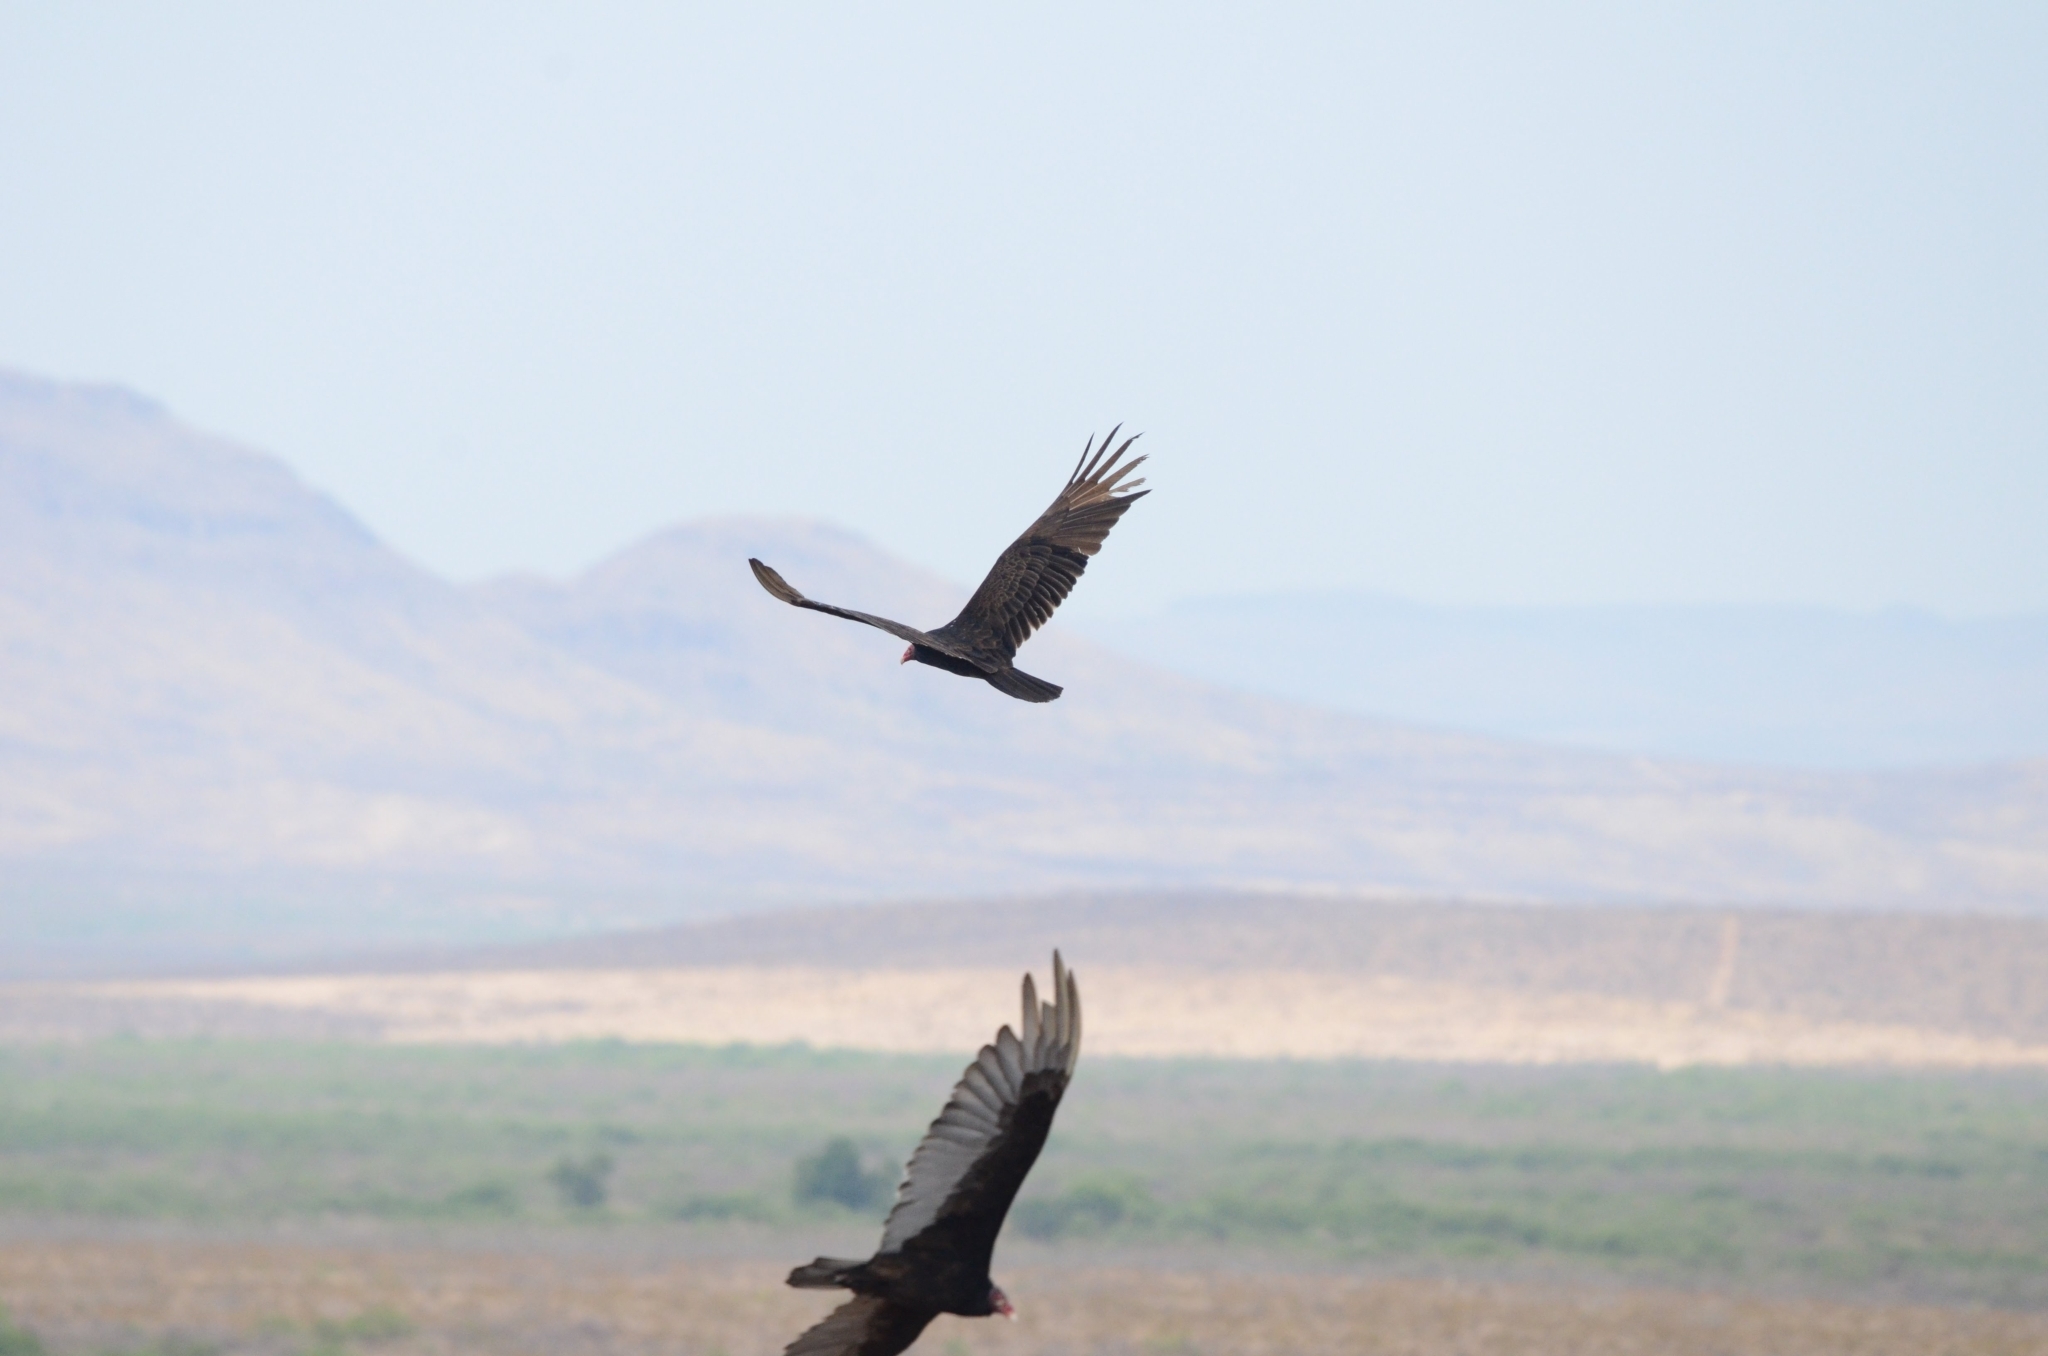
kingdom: Animalia
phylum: Chordata
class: Aves
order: Accipitriformes
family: Cathartidae
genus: Cathartes
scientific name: Cathartes aura
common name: Turkey vulture
